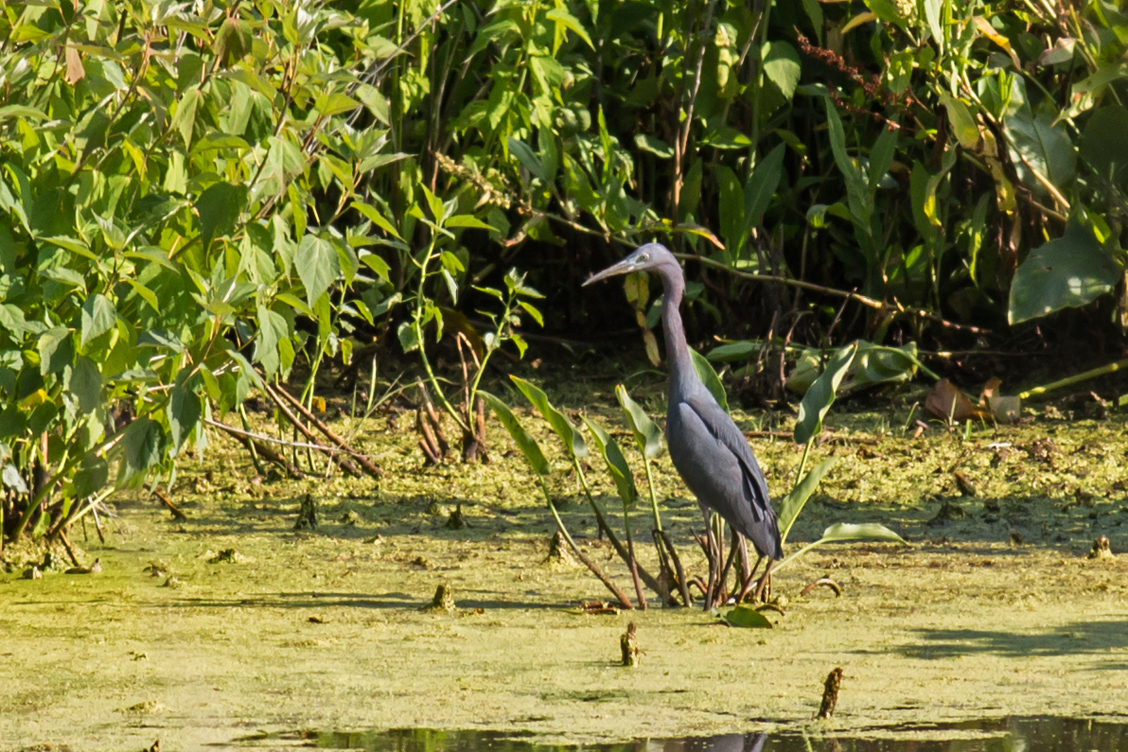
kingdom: Animalia
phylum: Chordata
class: Aves
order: Pelecaniformes
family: Ardeidae
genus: Egretta
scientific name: Egretta caerulea
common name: Little blue heron
